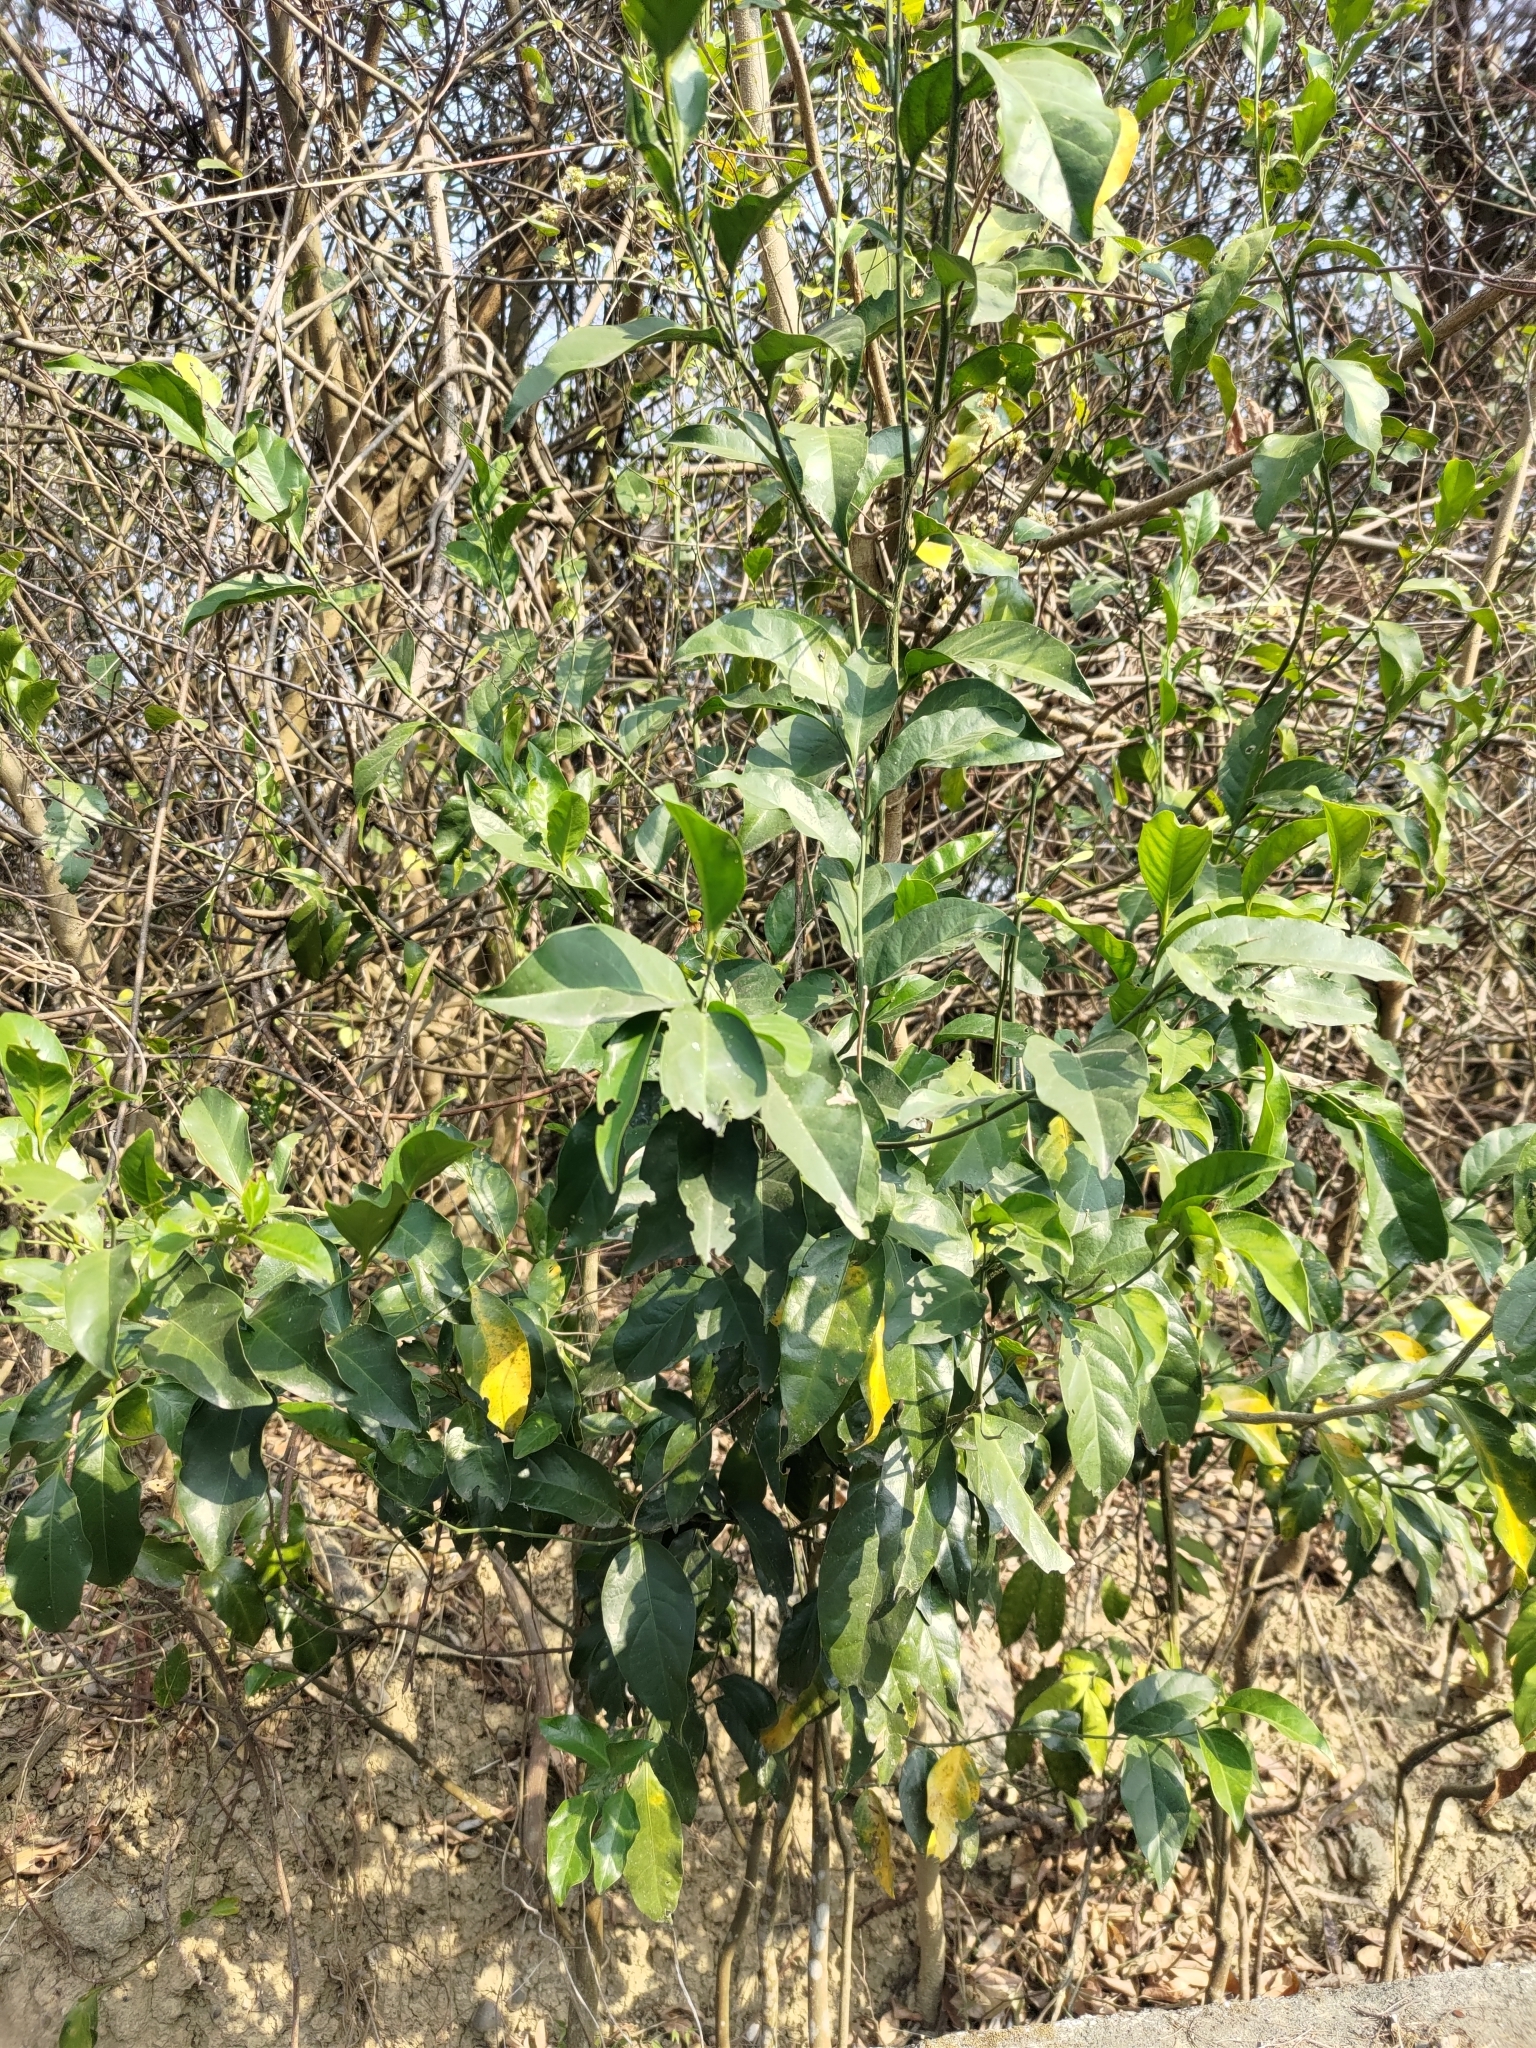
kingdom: Plantae
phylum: Tracheophyta
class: Magnoliopsida
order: Santalales
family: Opiliaceae
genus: Champereia
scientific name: Champereia manillana
